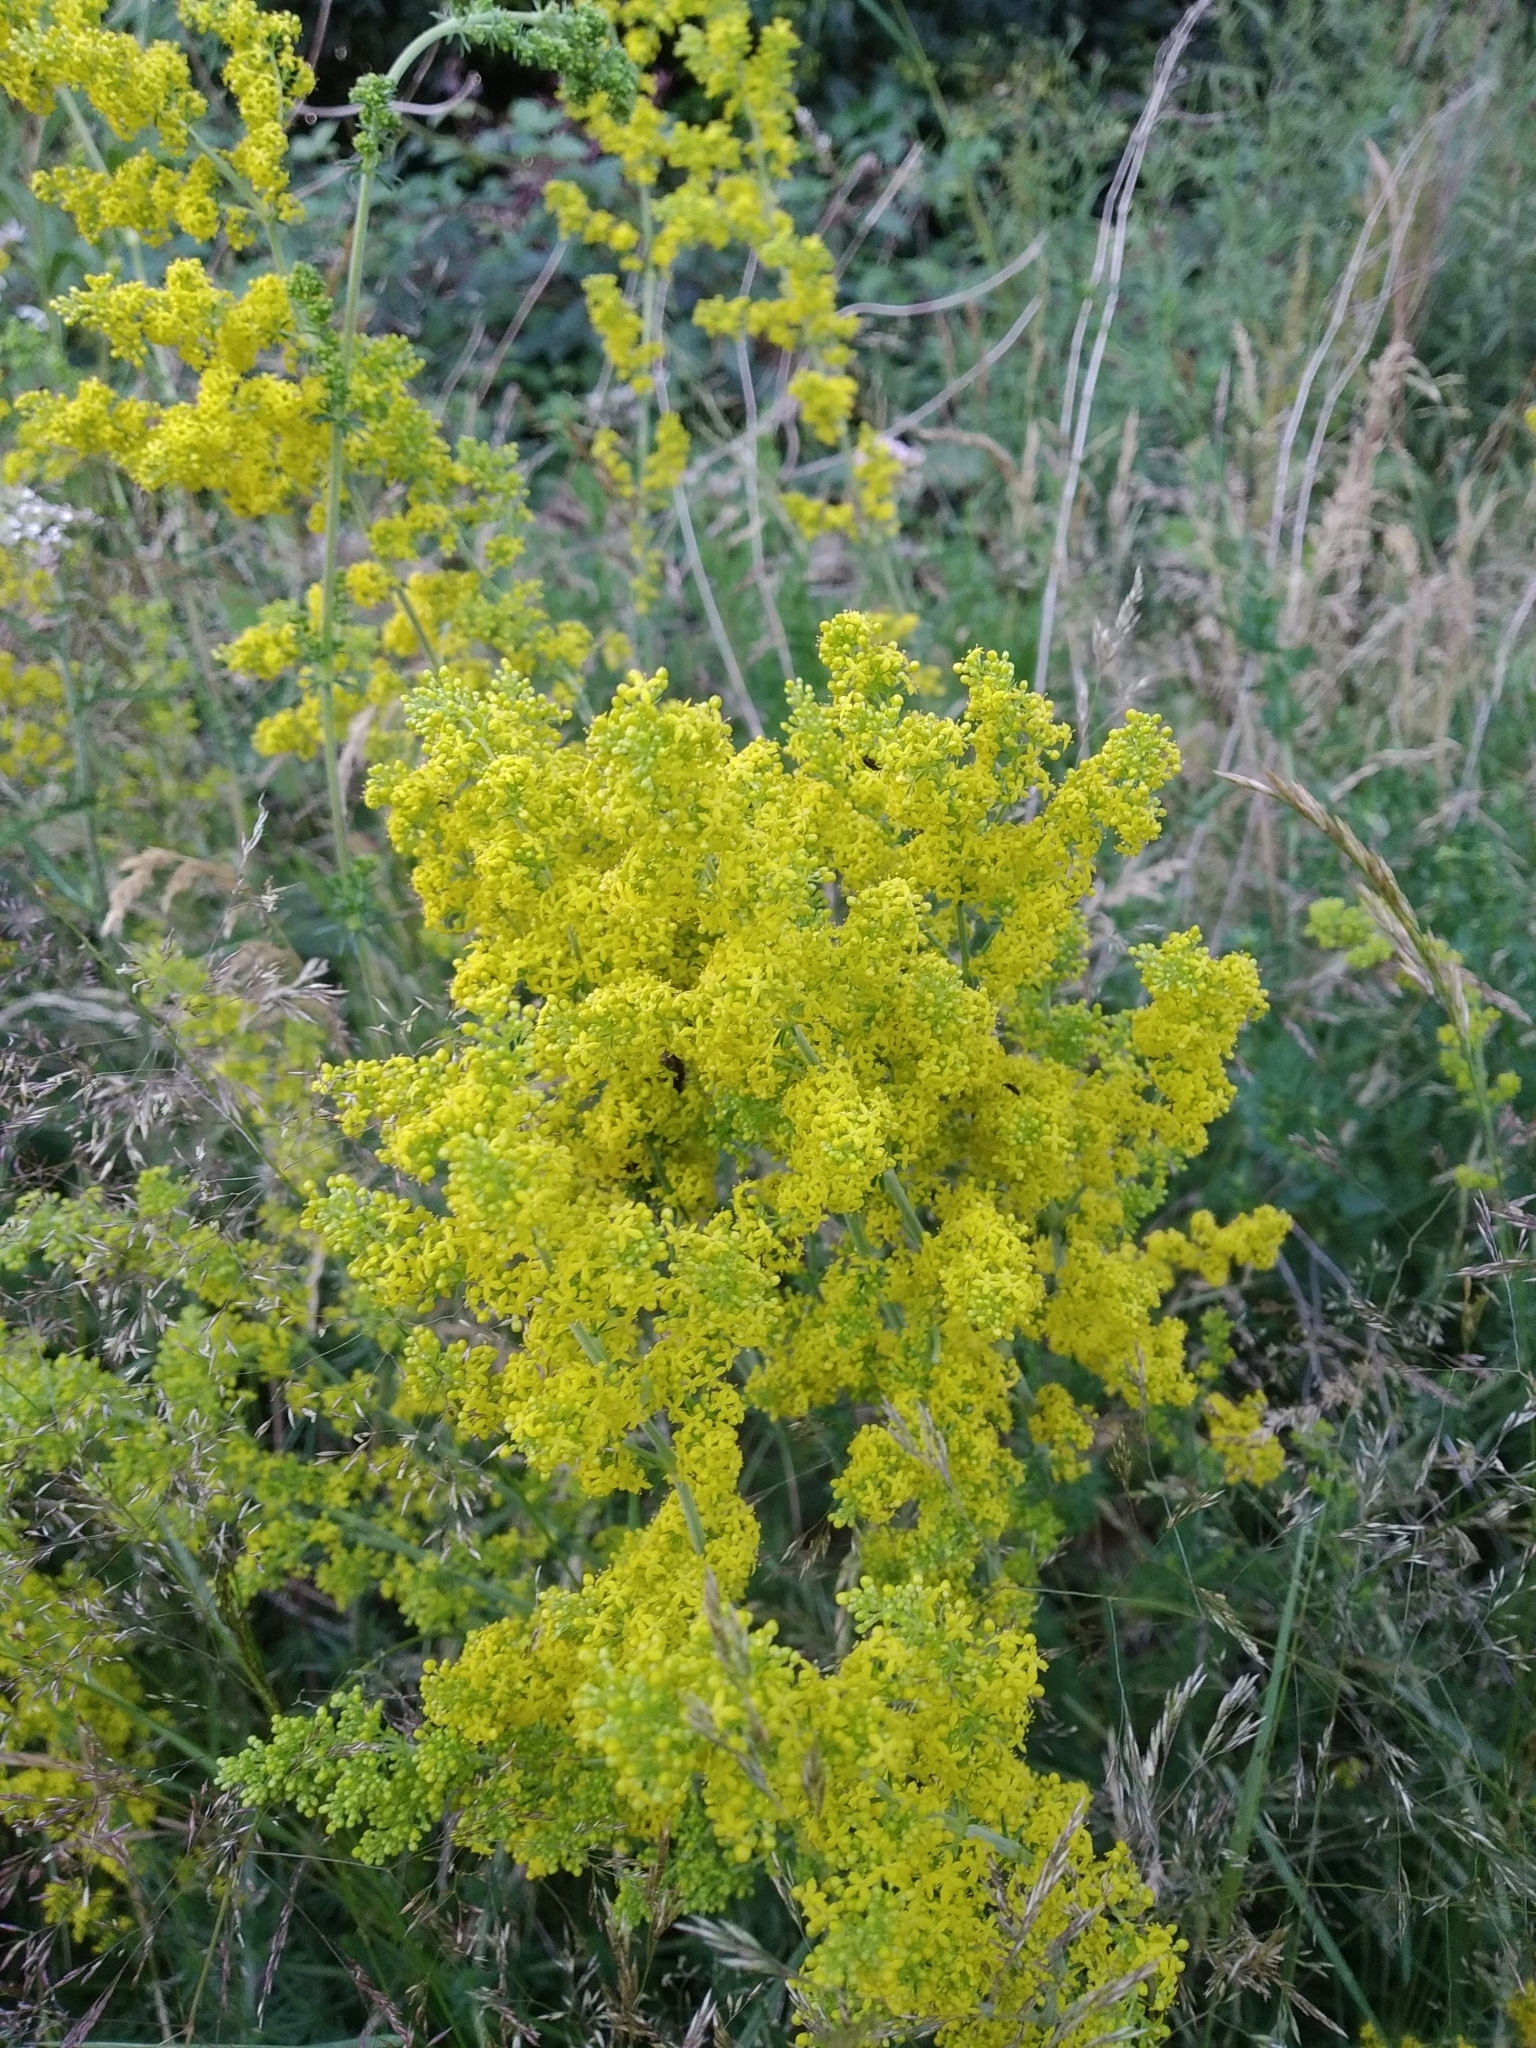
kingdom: Plantae
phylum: Tracheophyta
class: Magnoliopsida
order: Gentianales
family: Rubiaceae
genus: Galium
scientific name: Galium verum
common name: Lady's bedstraw
